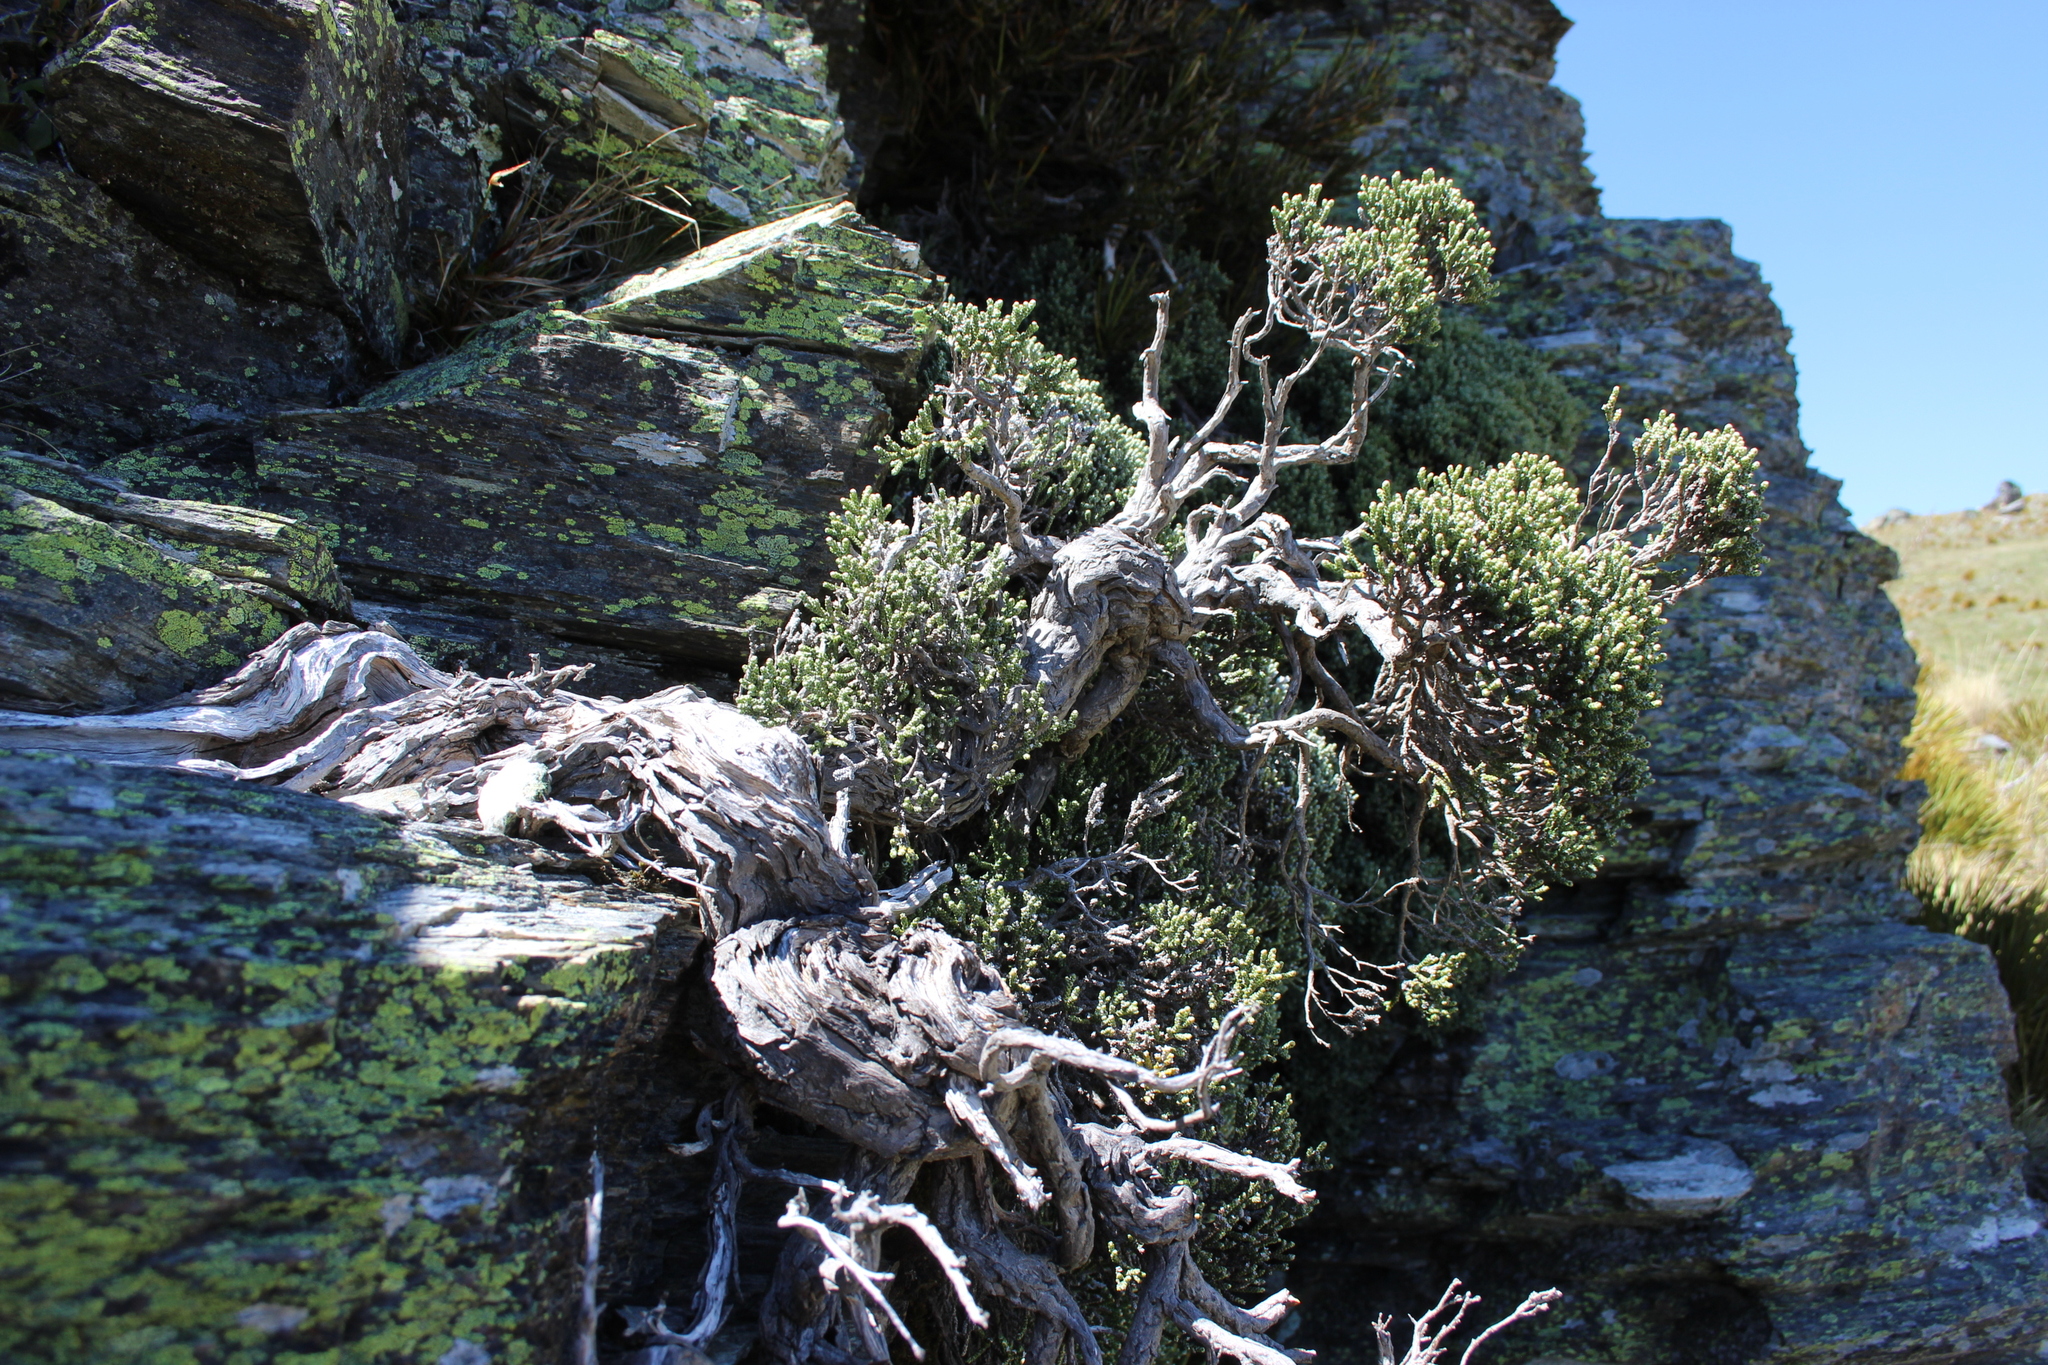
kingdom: Plantae
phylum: Tracheophyta
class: Magnoliopsida
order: Asterales
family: Asteraceae
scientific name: Asteraceae
